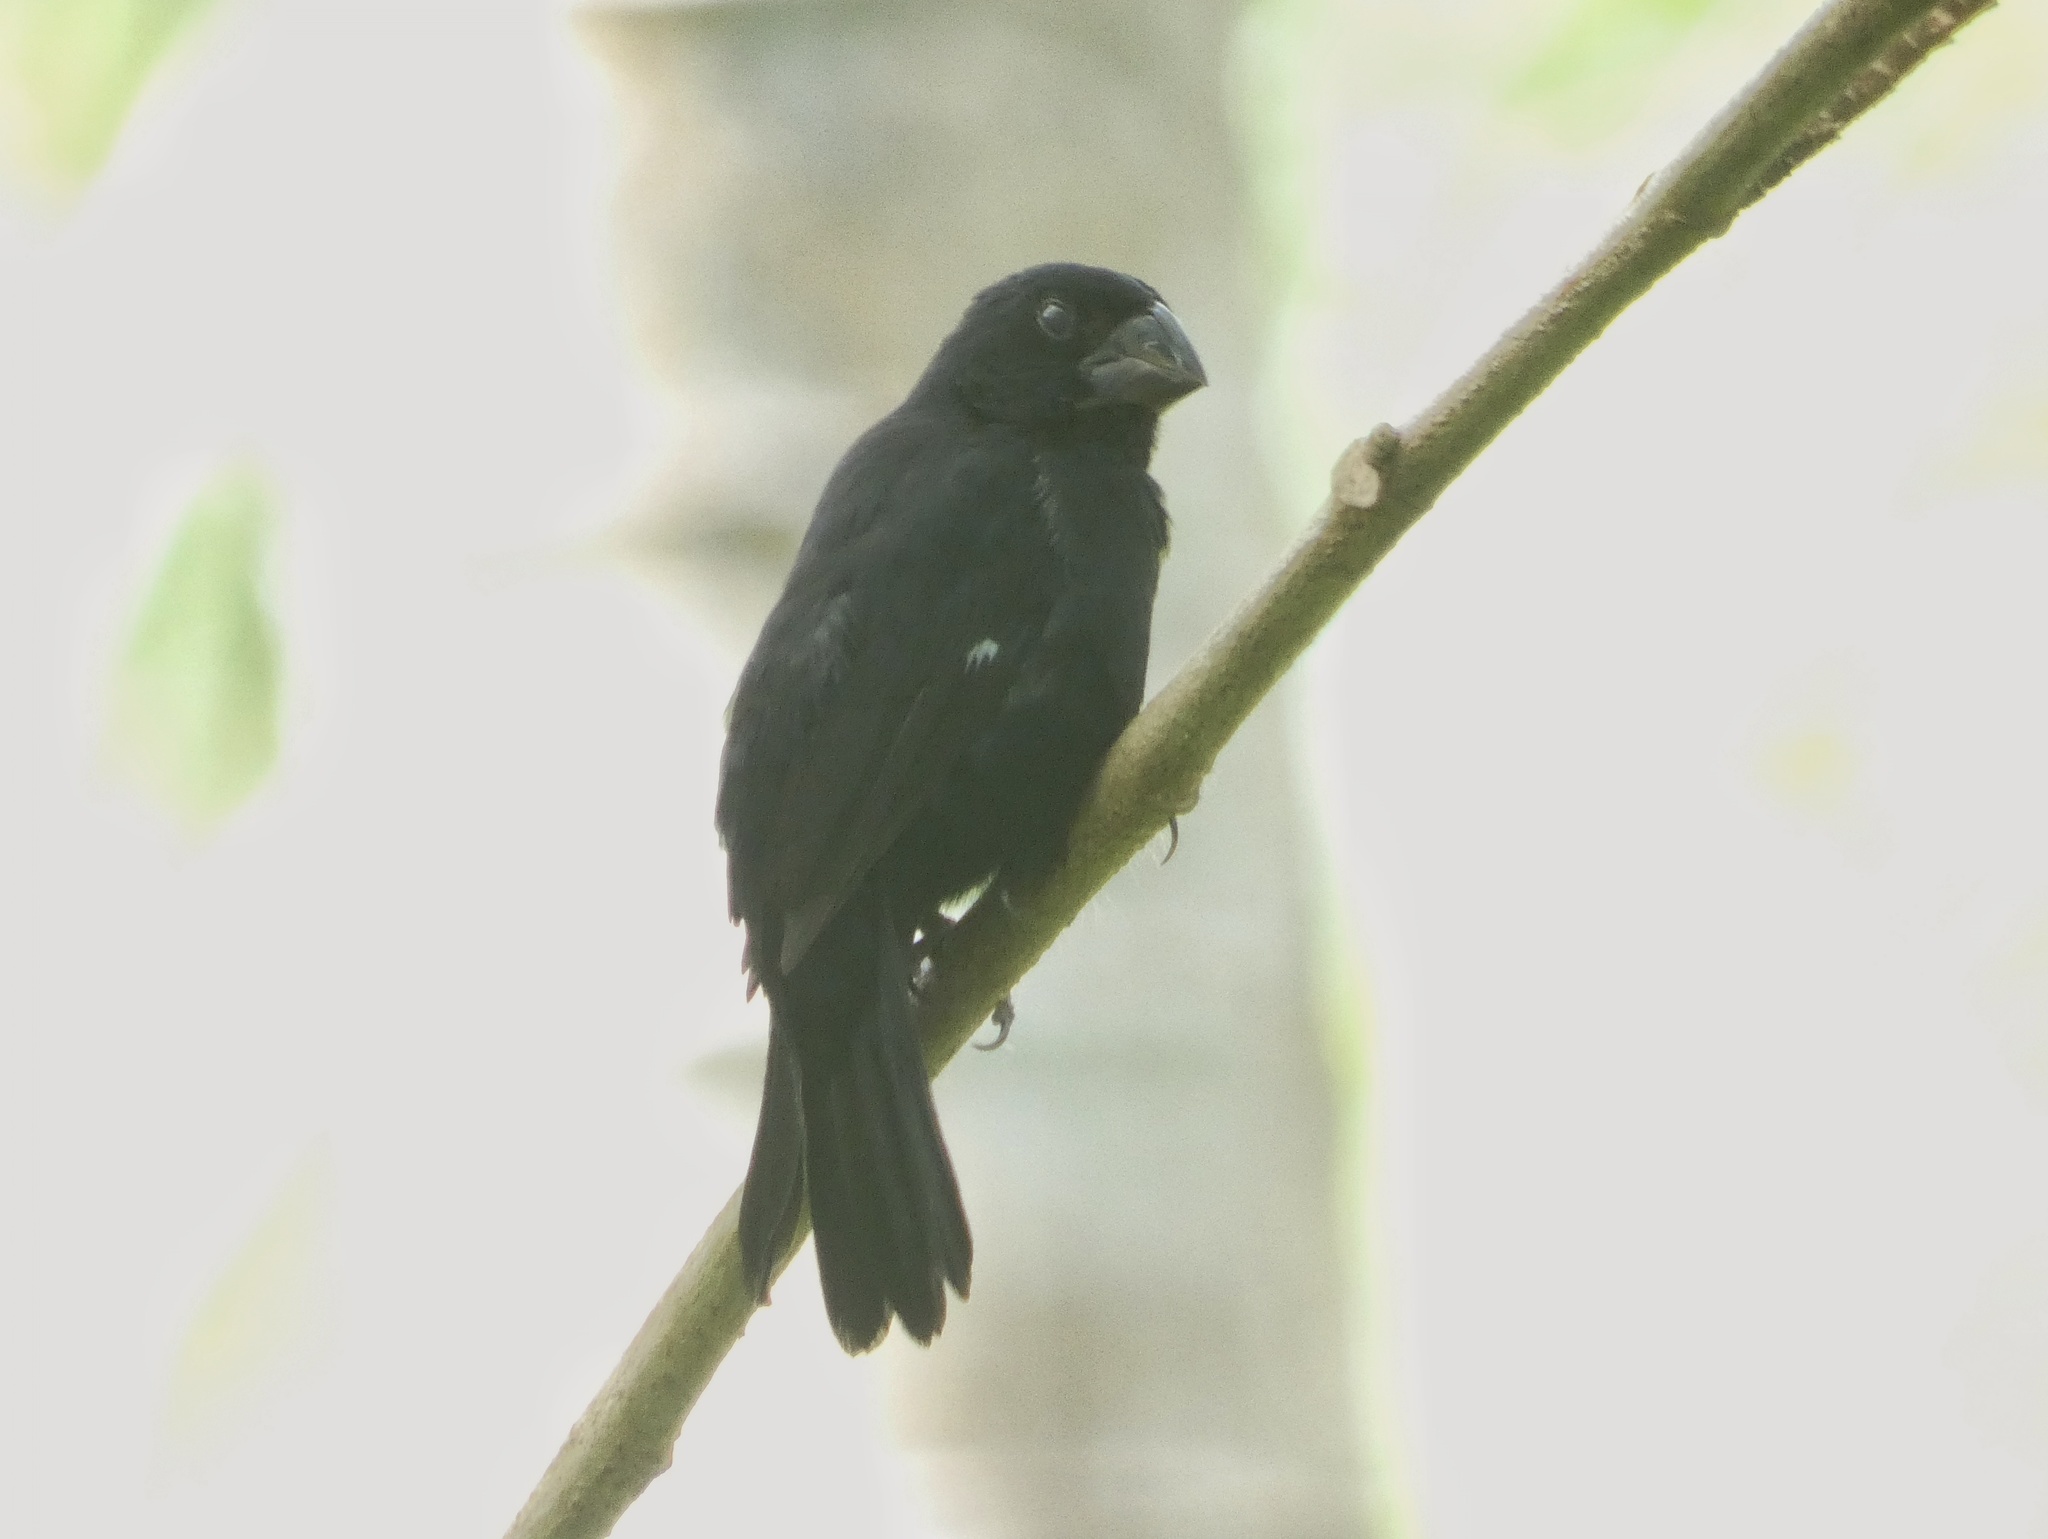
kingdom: Animalia
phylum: Chordata
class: Aves
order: Passeriformes
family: Thraupidae
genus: Sporophila
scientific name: Sporophila funerea
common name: Thick-billed seed-finch
